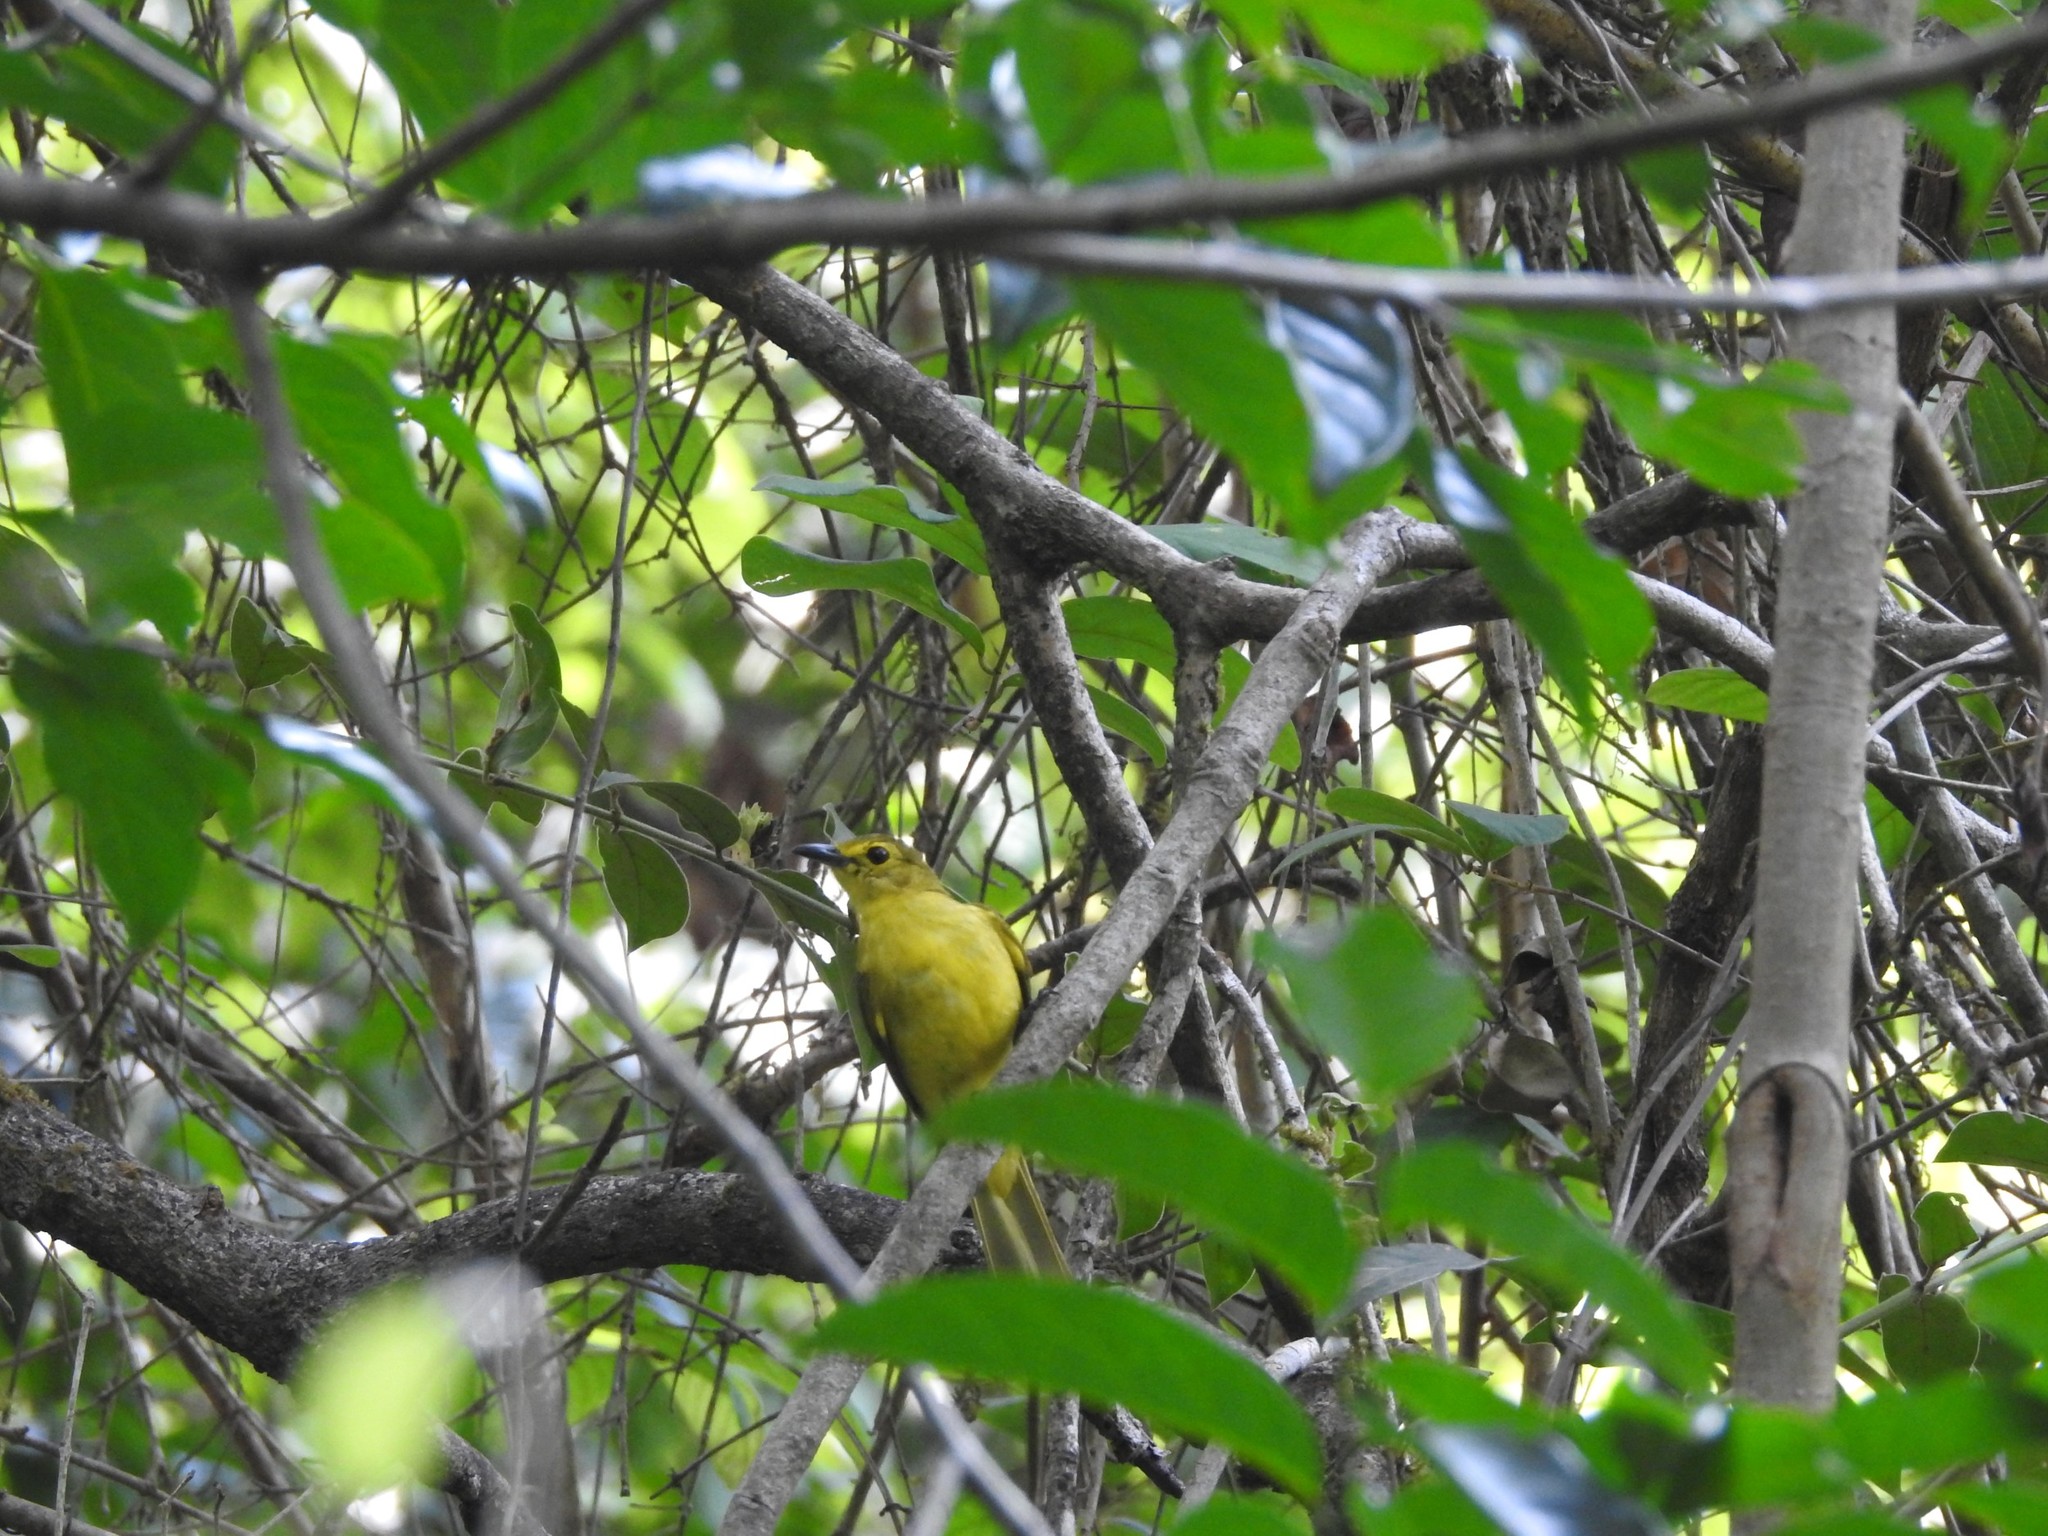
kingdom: Animalia
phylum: Chordata
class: Aves
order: Passeriformes
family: Pycnonotidae
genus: Acritillas
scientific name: Acritillas indica
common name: Yellow-browed bulbul
